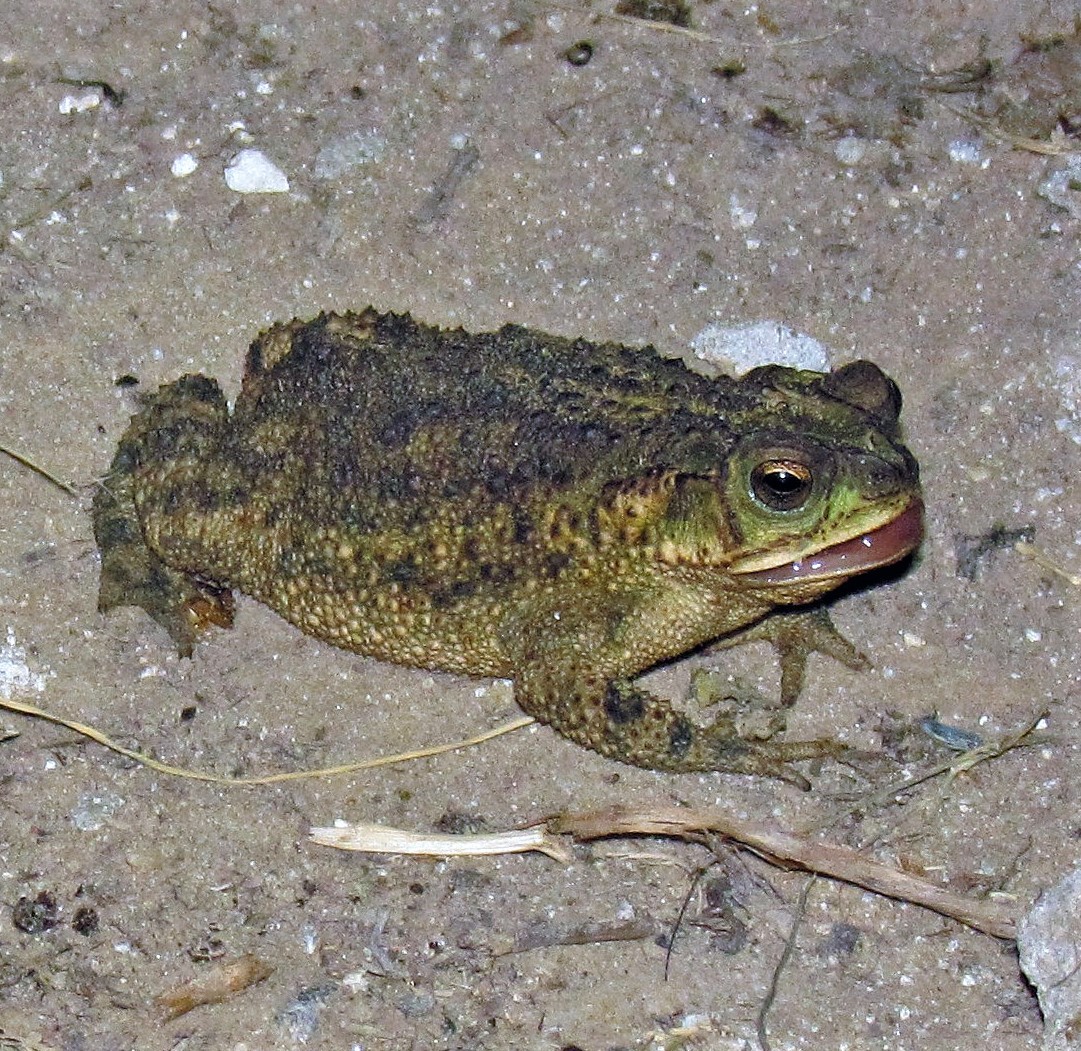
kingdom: Animalia
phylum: Chordata
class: Amphibia
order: Anura
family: Bufonidae
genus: Rhinella
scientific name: Rhinella dorbignyi
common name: D´orbigny’s toad
